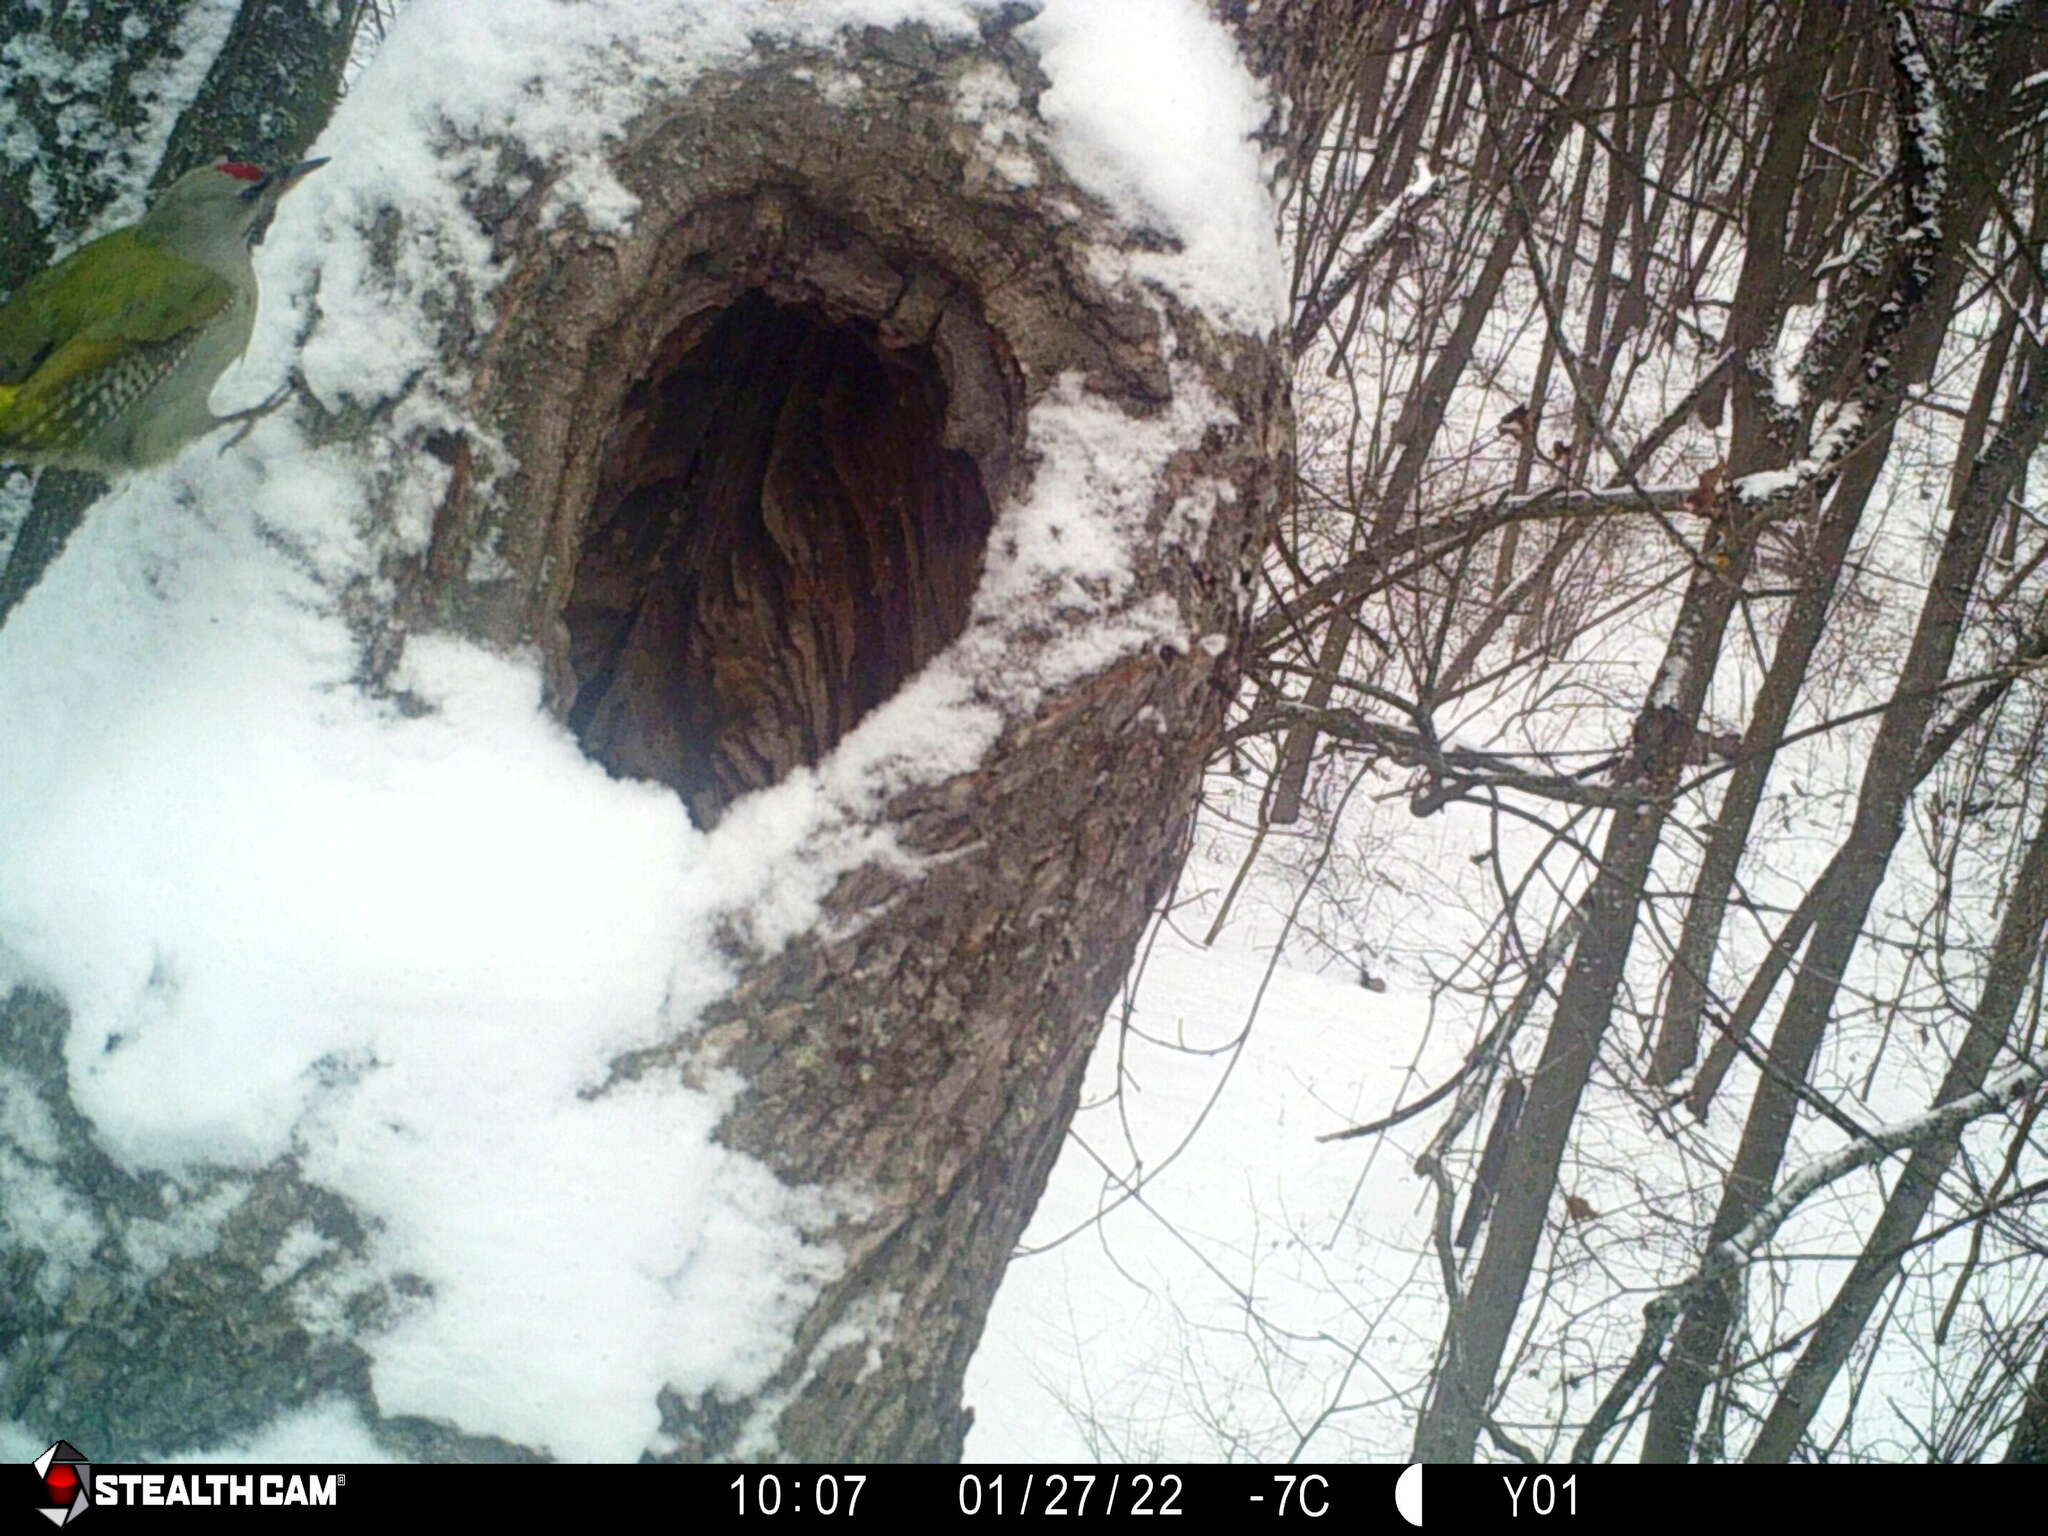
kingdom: Animalia
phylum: Chordata
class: Aves
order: Piciformes
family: Picidae
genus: Picus
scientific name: Picus canus
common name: Grey-headed woodpecker
